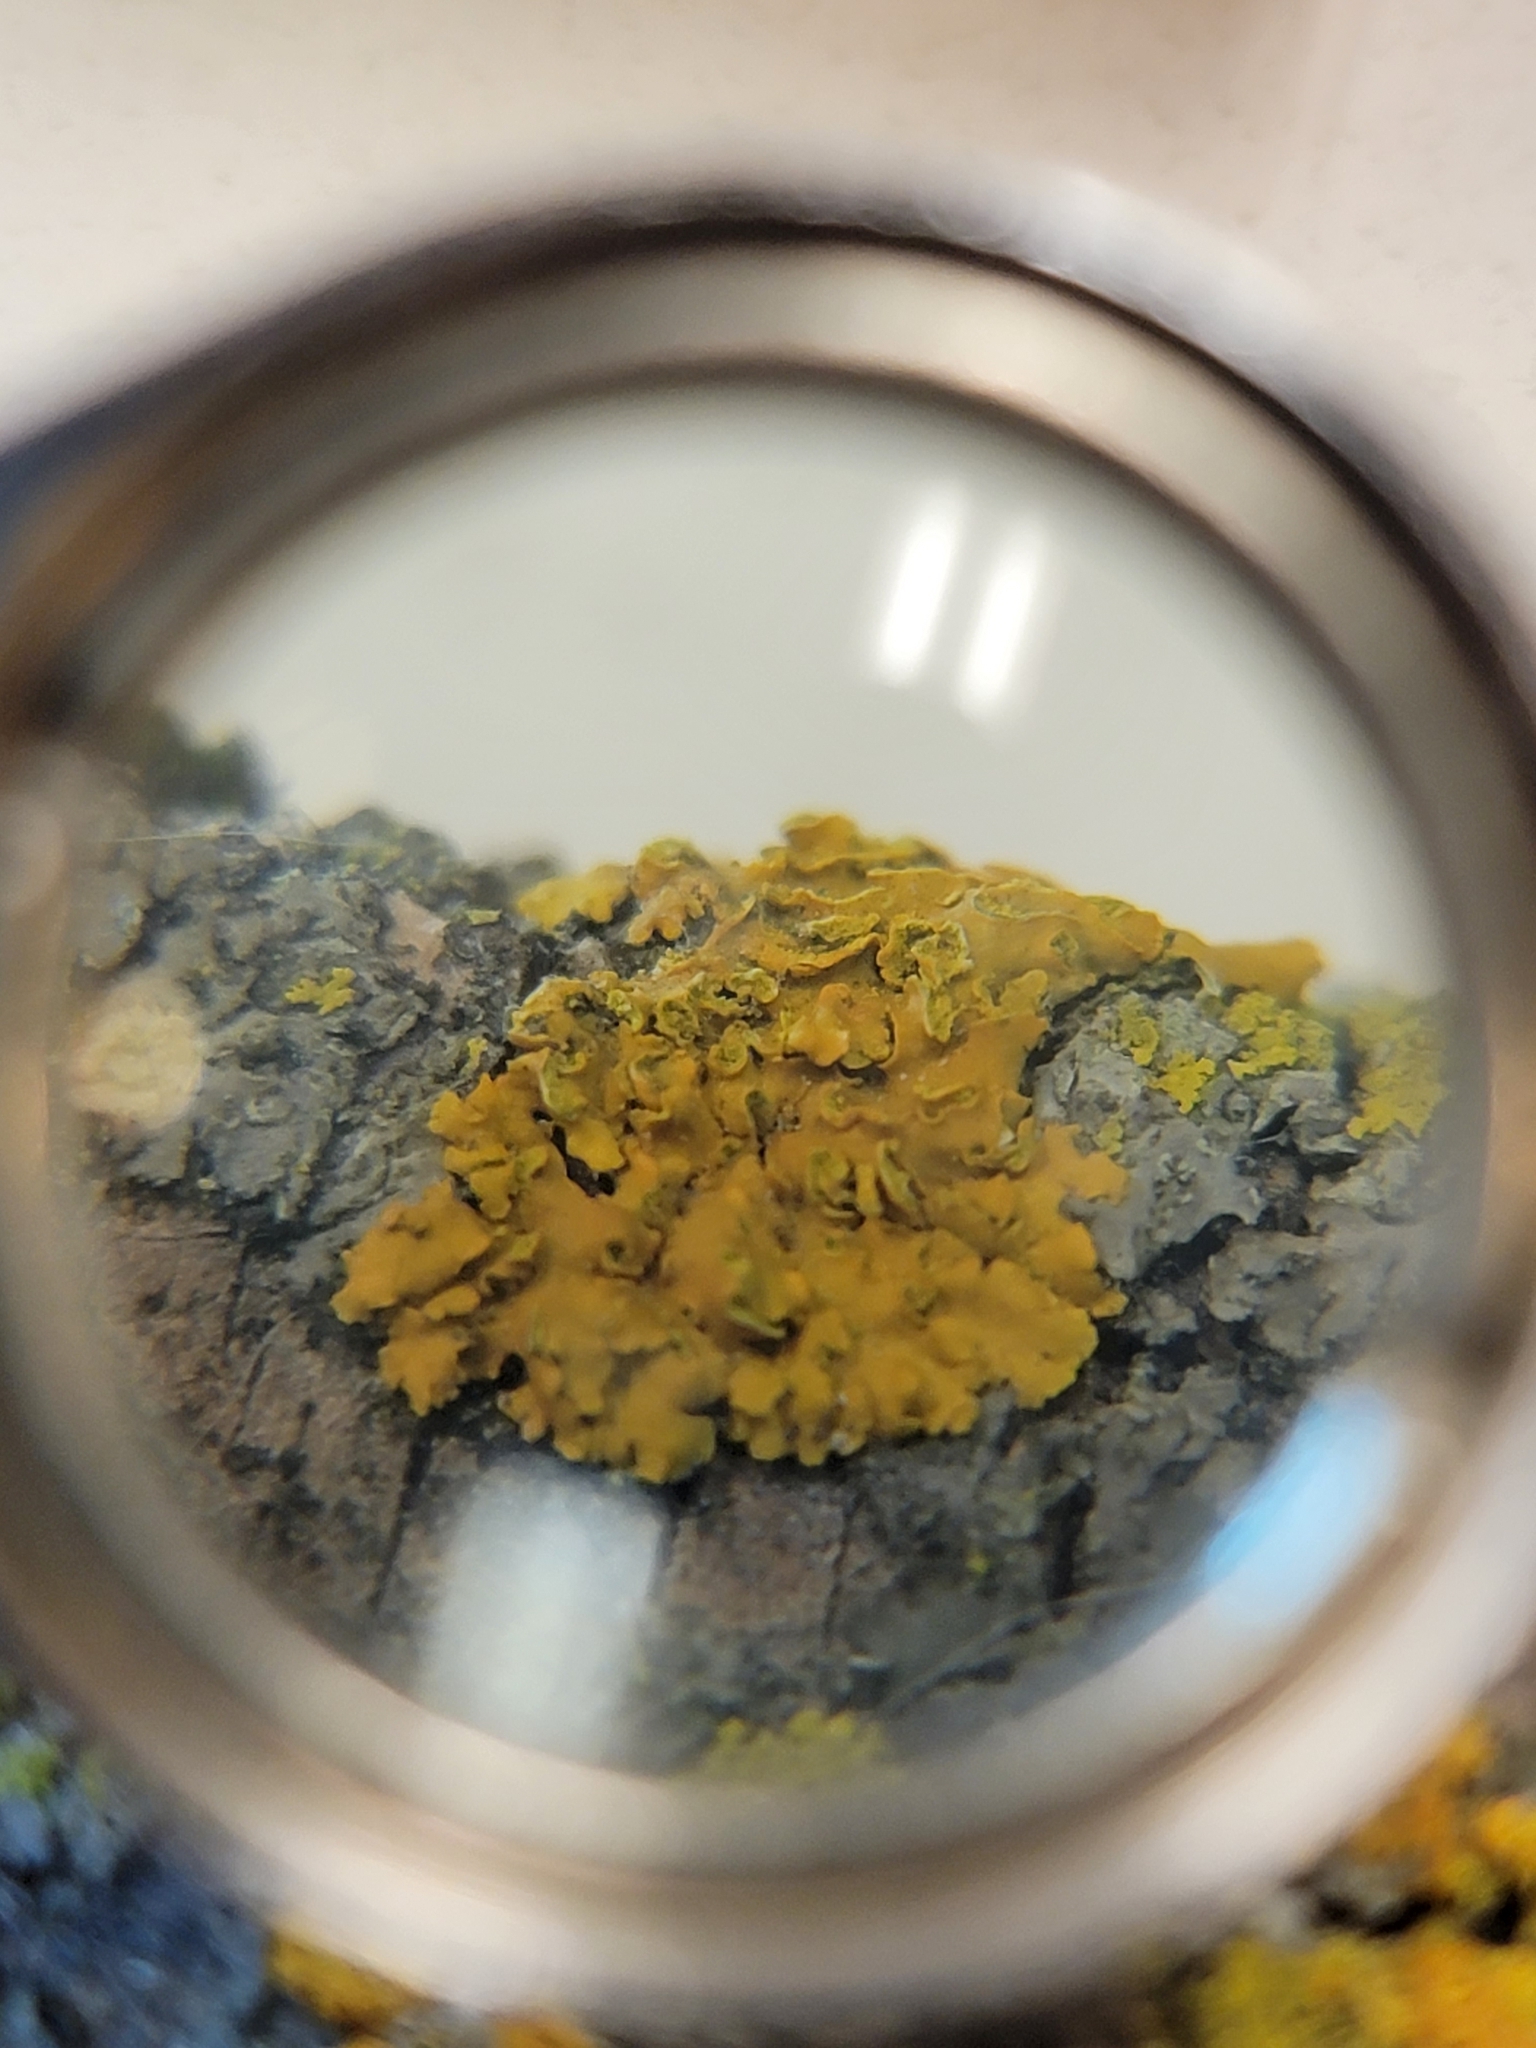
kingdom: Fungi
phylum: Ascomycota
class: Lecanoromycetes
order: Teloschistales
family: Teloschistaceae
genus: Oxneria
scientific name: Oxneria fallax
